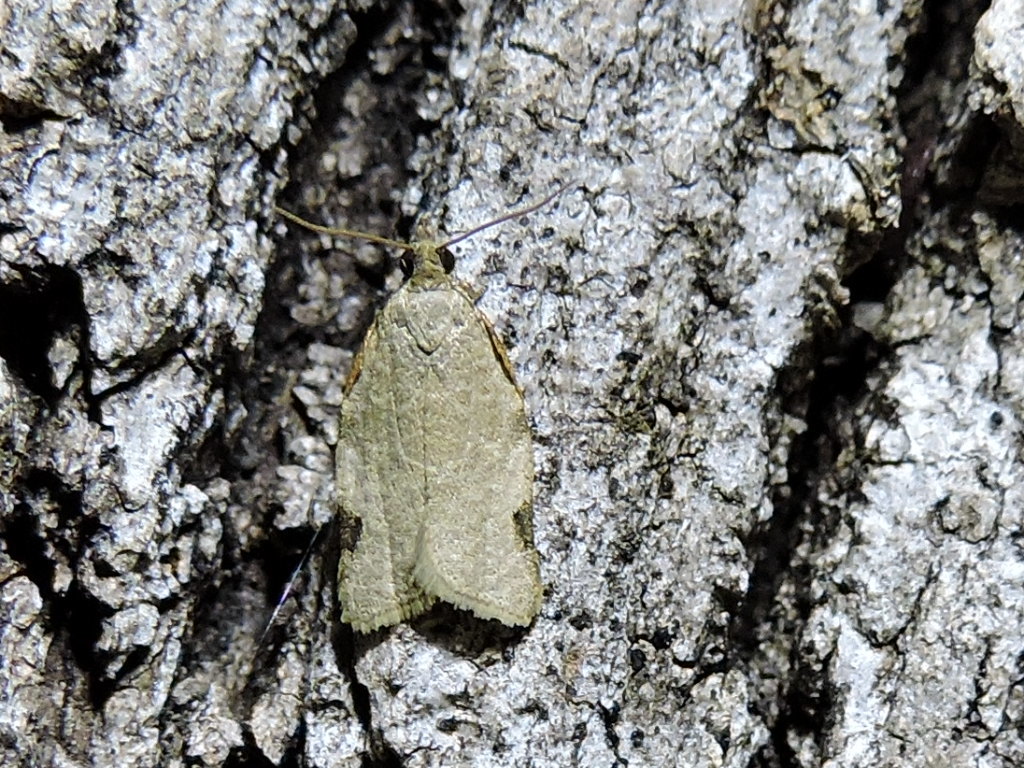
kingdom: Animalia
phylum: Arthropoda
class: Insecta
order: Lepidoptera
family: Tortricidae
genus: Clepsis
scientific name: Clepsis virescana
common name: Greenish apple moth
